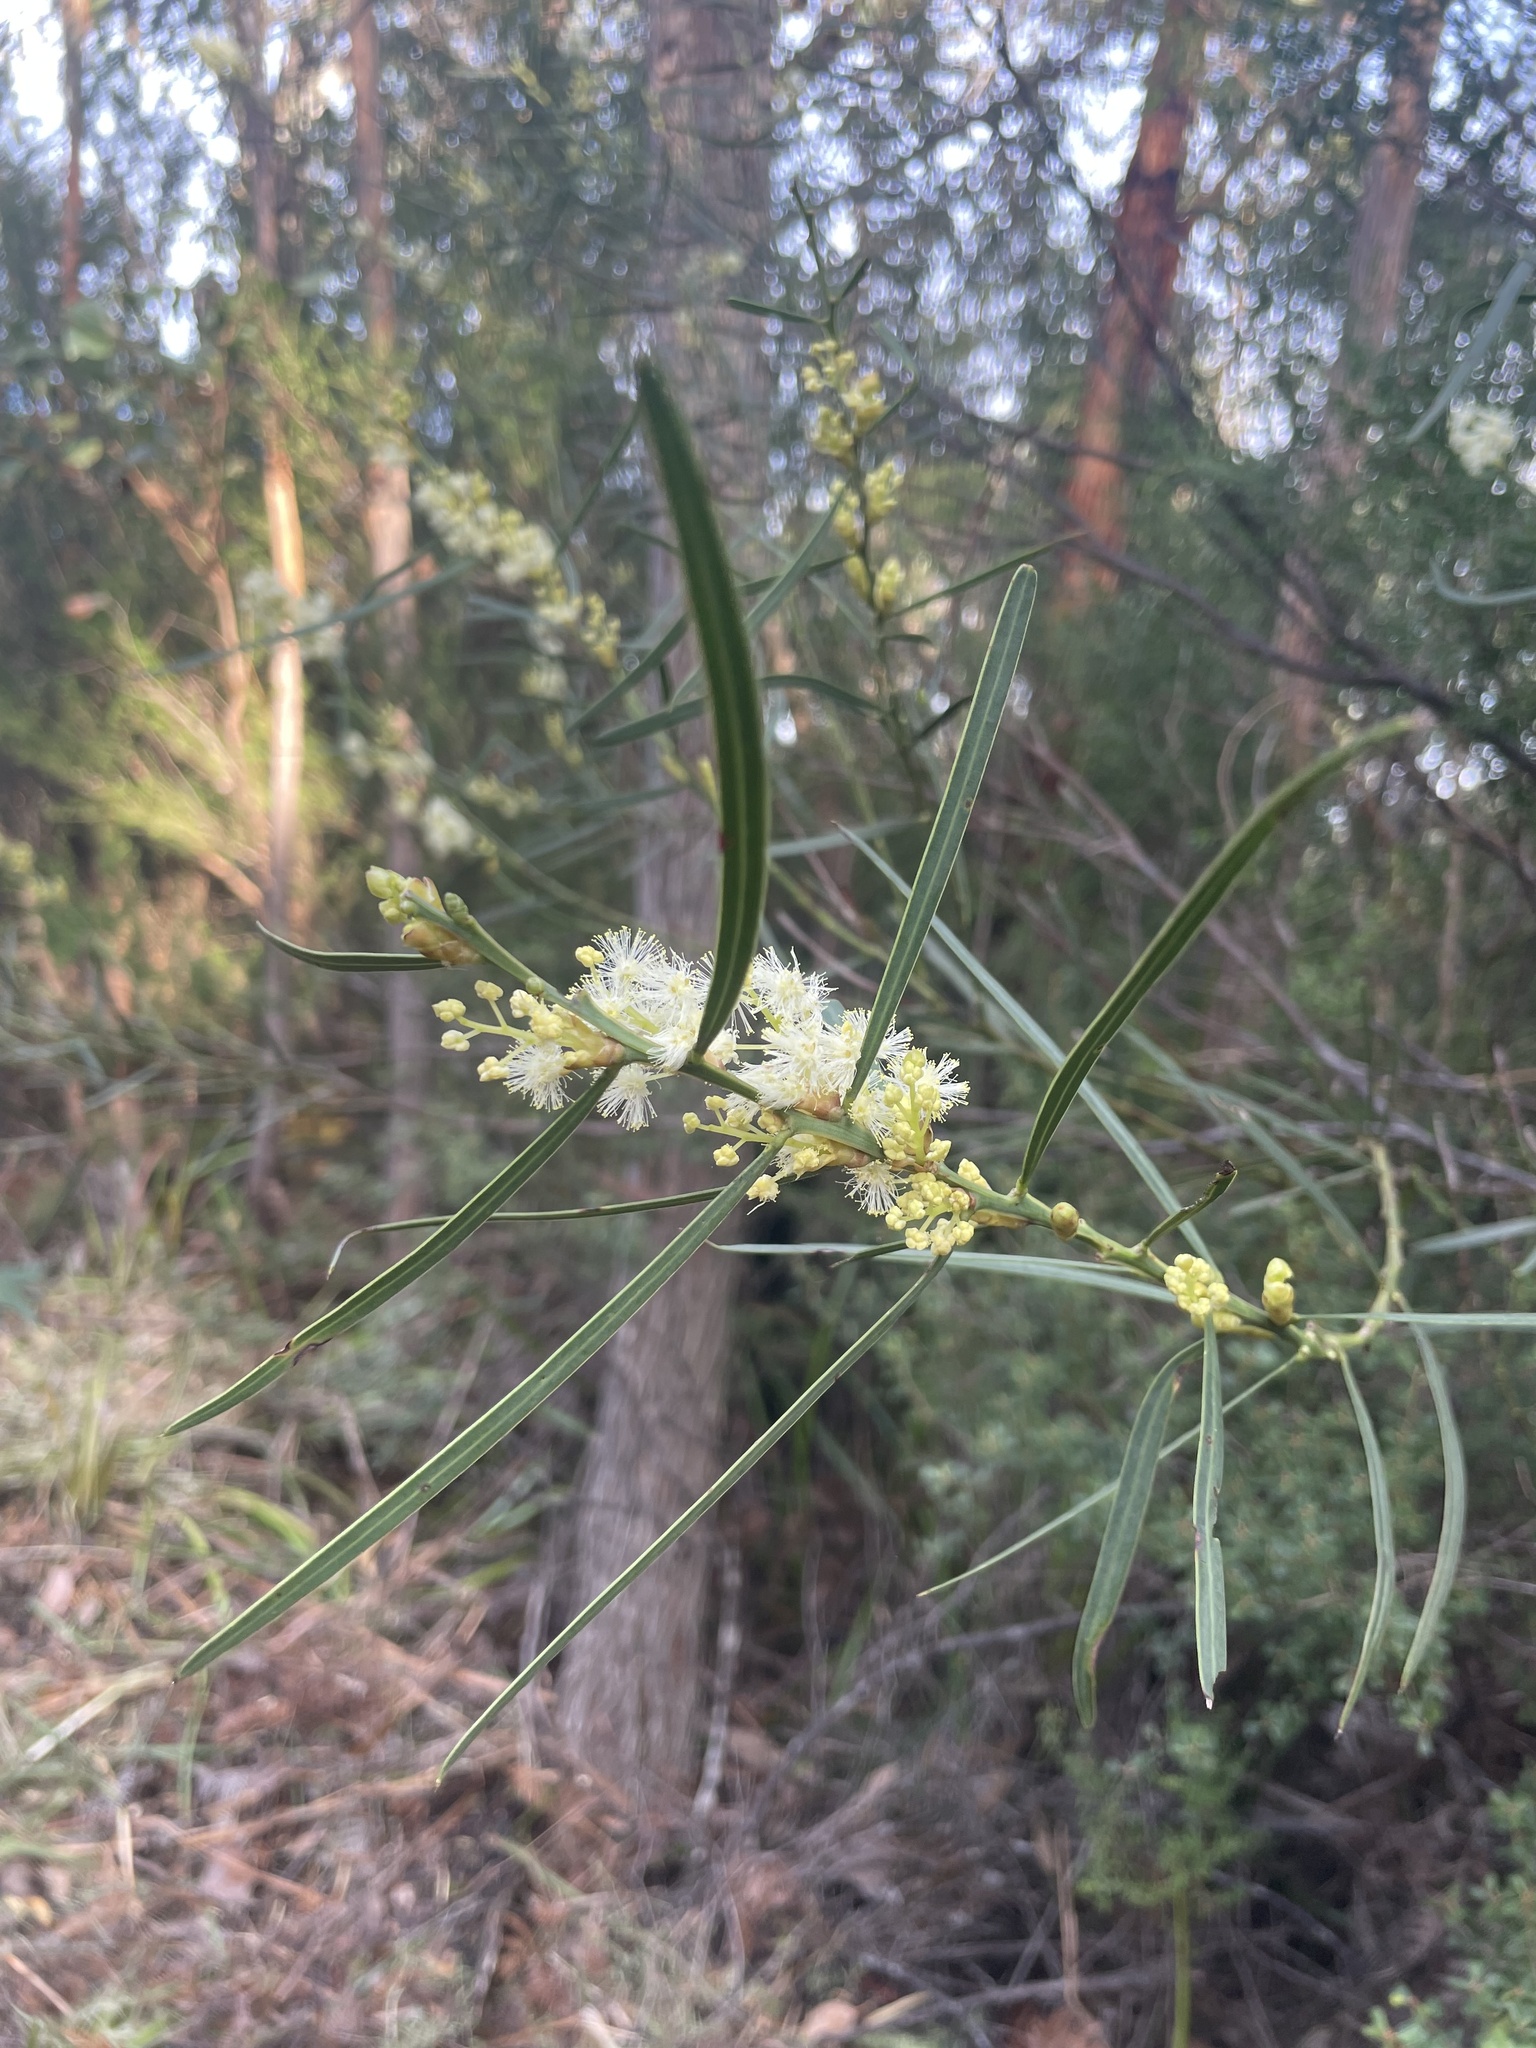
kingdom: Plantae
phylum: Tracheophyta
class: Magnoliopsida
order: Fabales
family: Fabaceae
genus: Acacia
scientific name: Acacia suaveolens
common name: Sweet acacia
